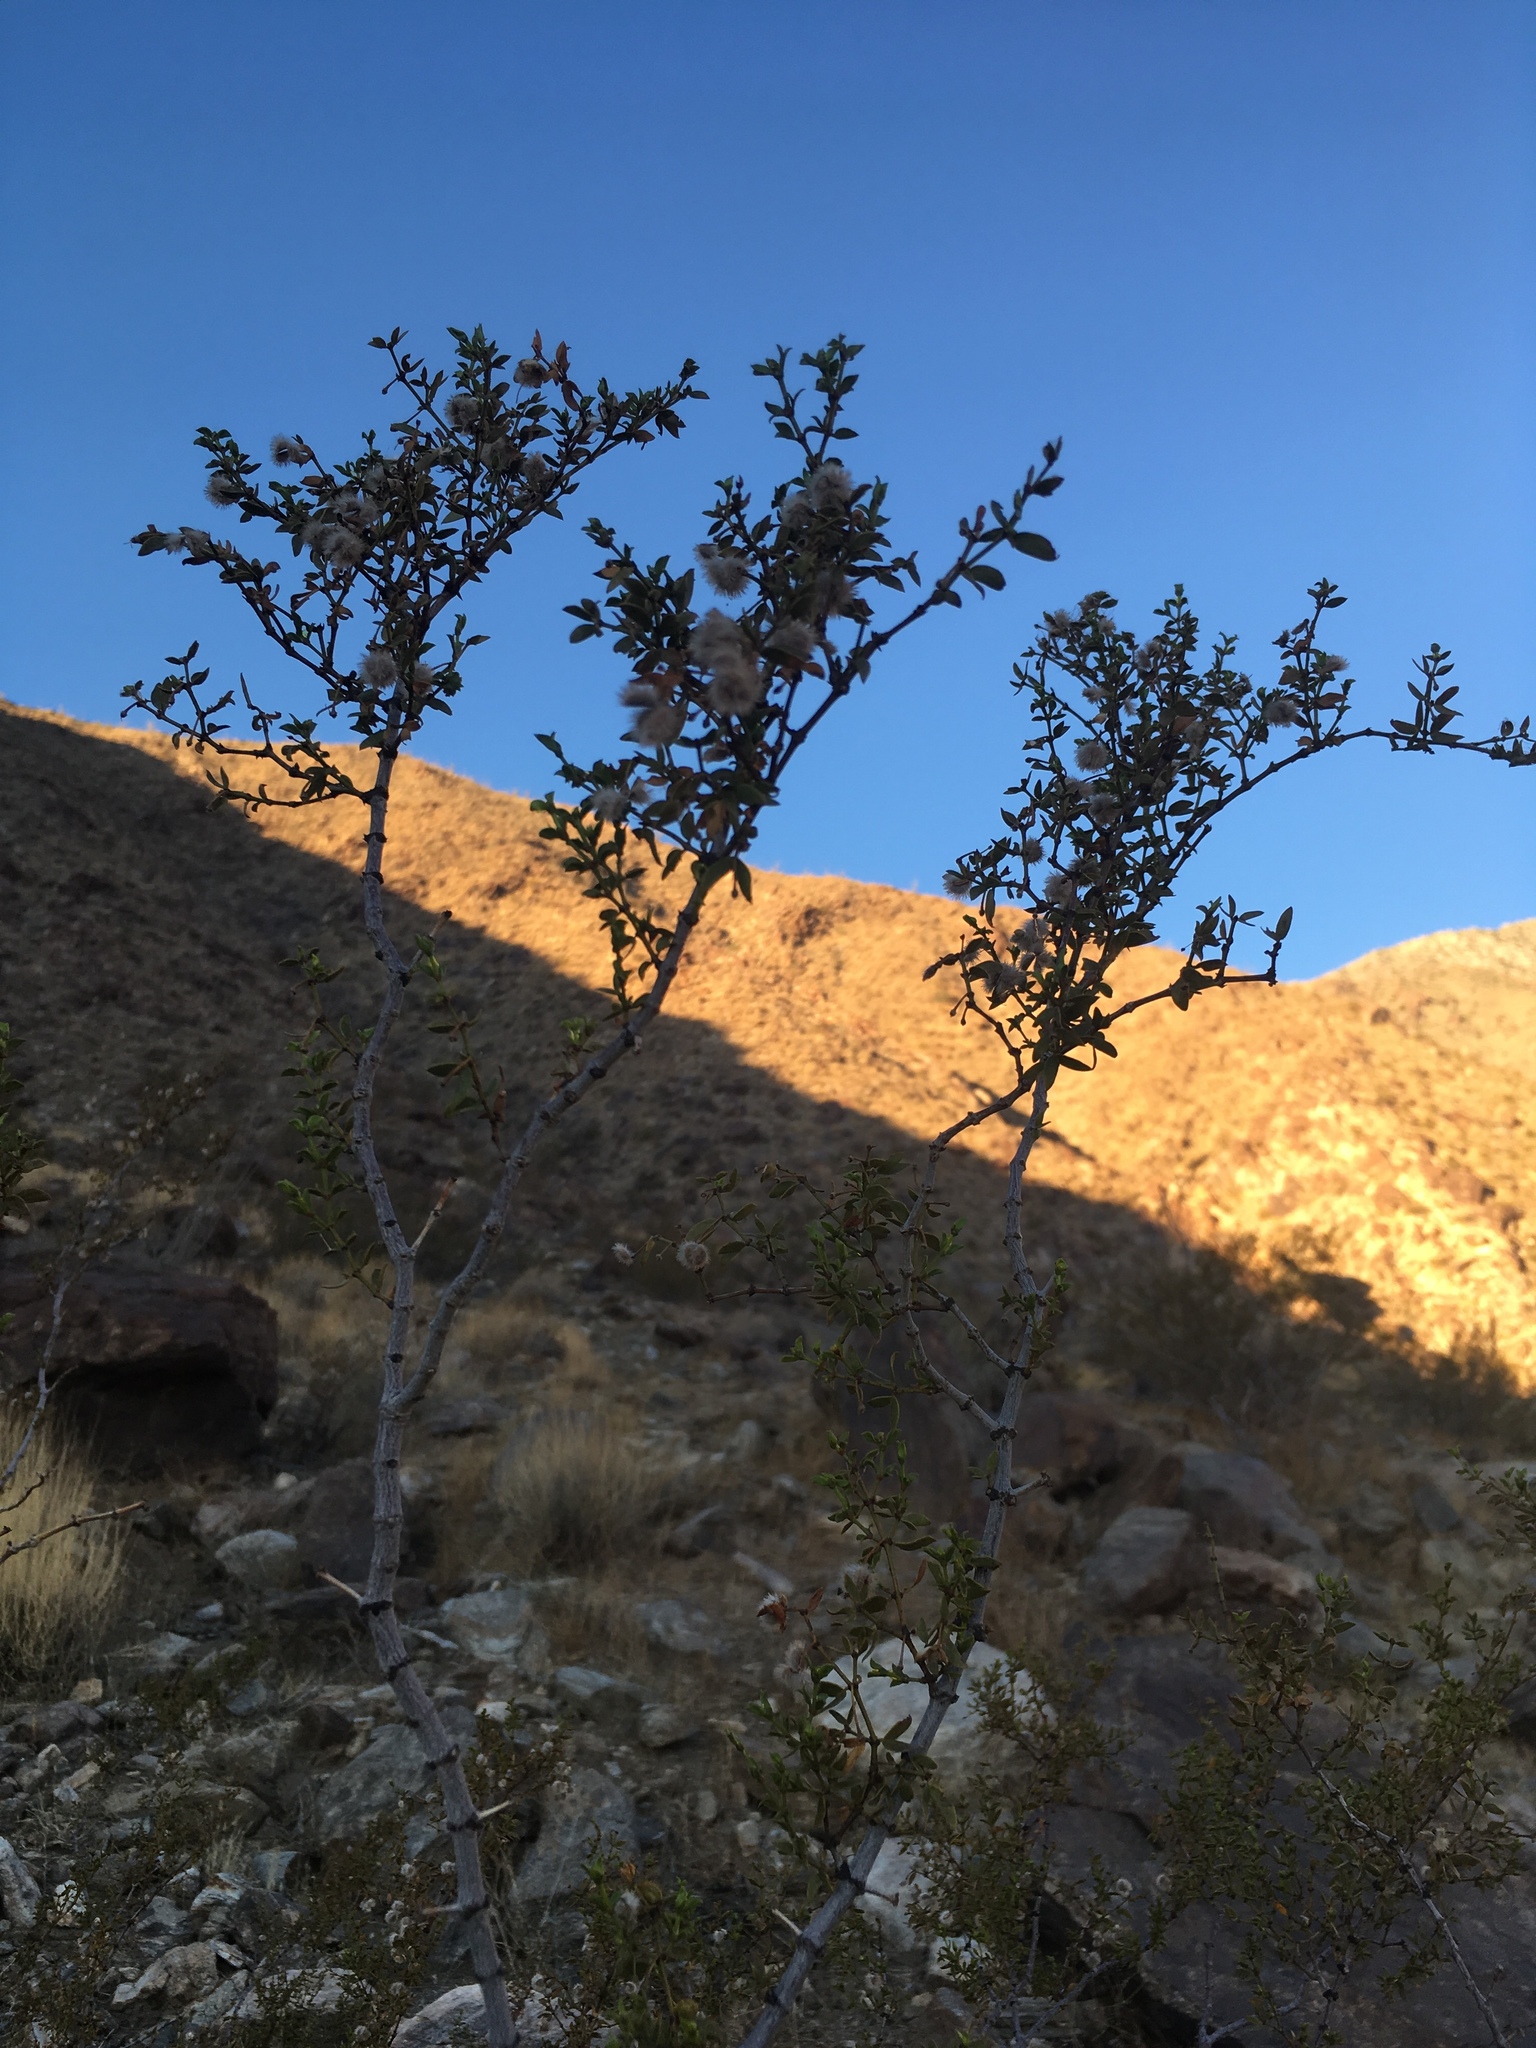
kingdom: Plantae
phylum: Tracheophyta
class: Magnoliopsida
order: Zygophyllales
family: Zygophyllaceae
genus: Larrea
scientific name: Larrea tridentata
